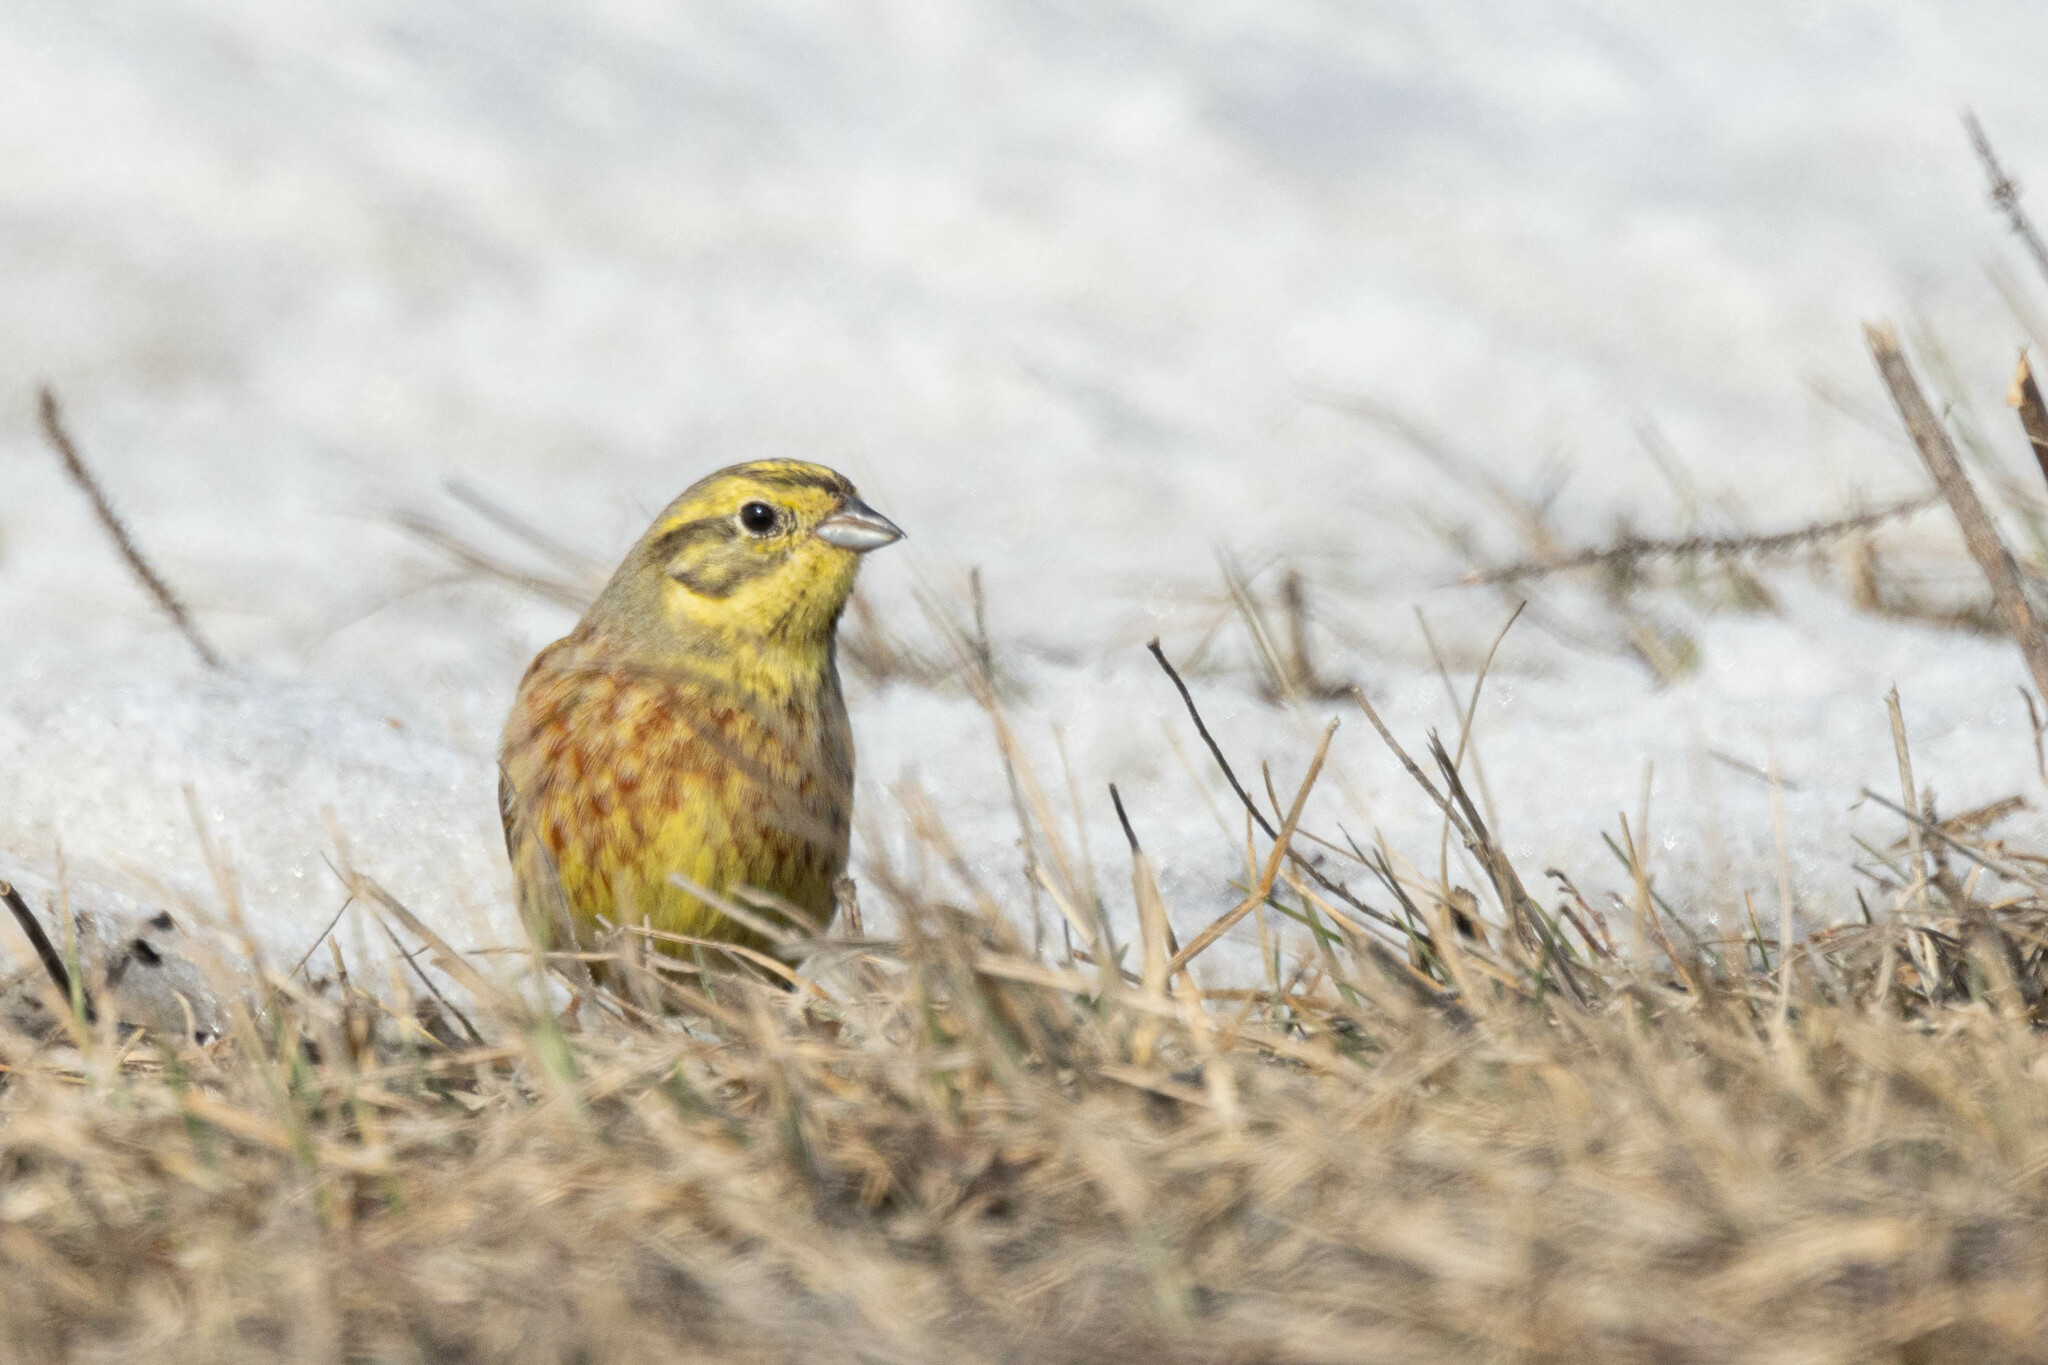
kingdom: Animalia
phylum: Chordata
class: Aves
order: Passeriformes
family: Emberizidae
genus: Emberiza
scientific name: Emberiza citrinella
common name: Yellowhammer
